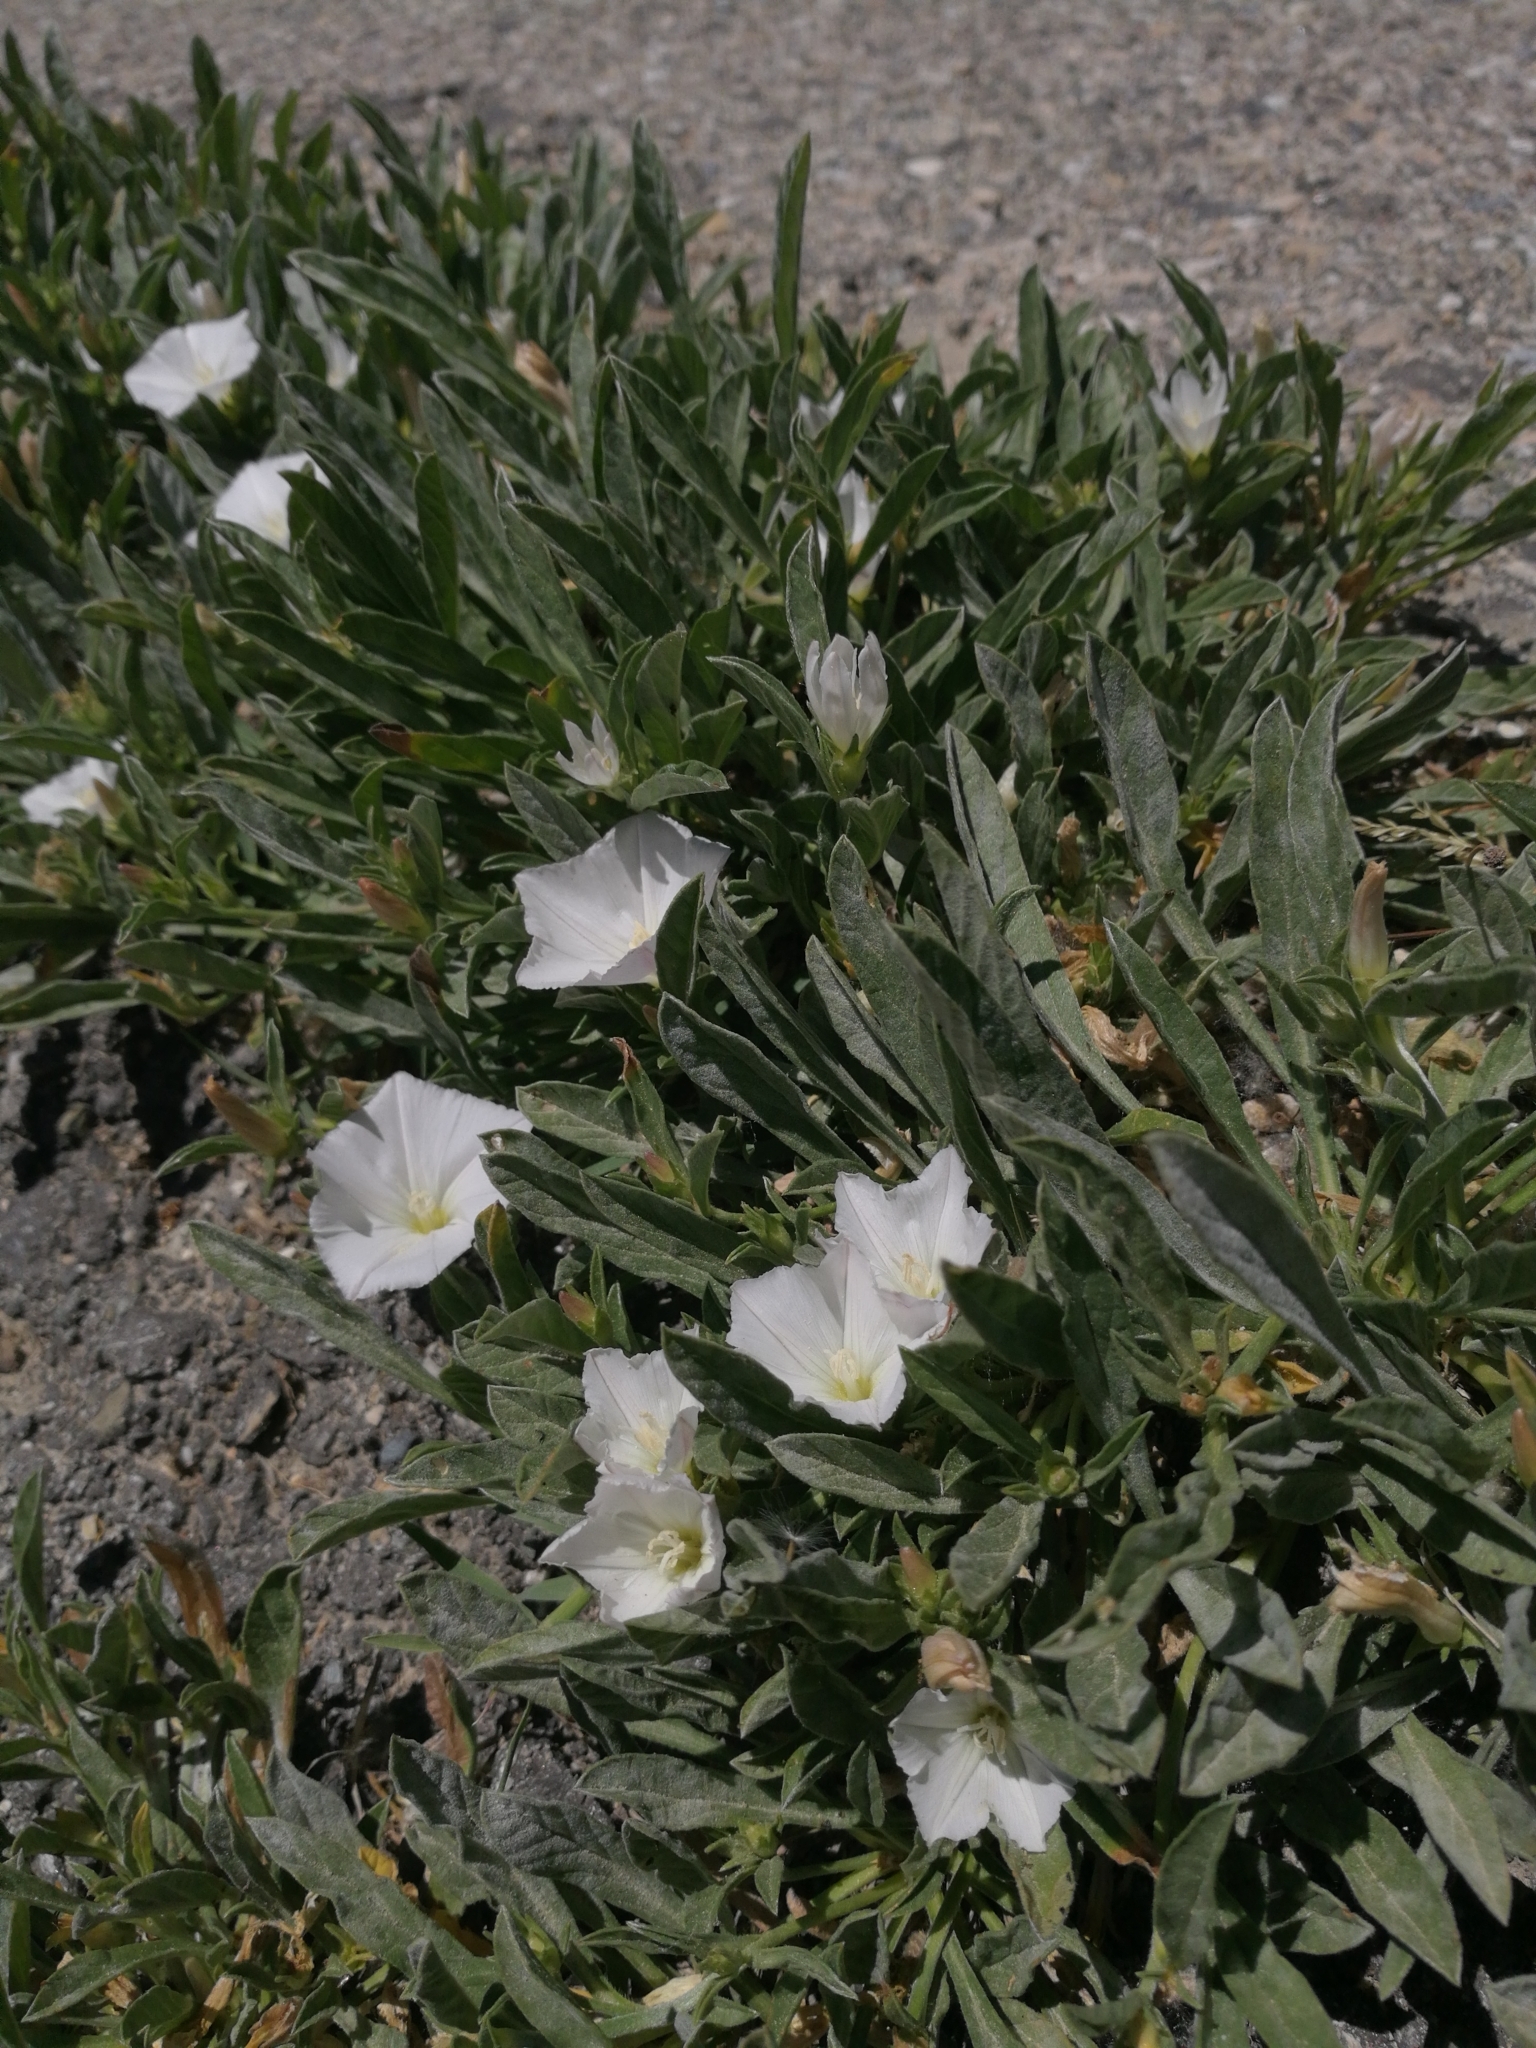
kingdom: Plantae
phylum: Tracheophyta
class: Magnoliopsida
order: Solanales
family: Convolvulaceae
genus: Convolvulus
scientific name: Convolvulus lineatus
